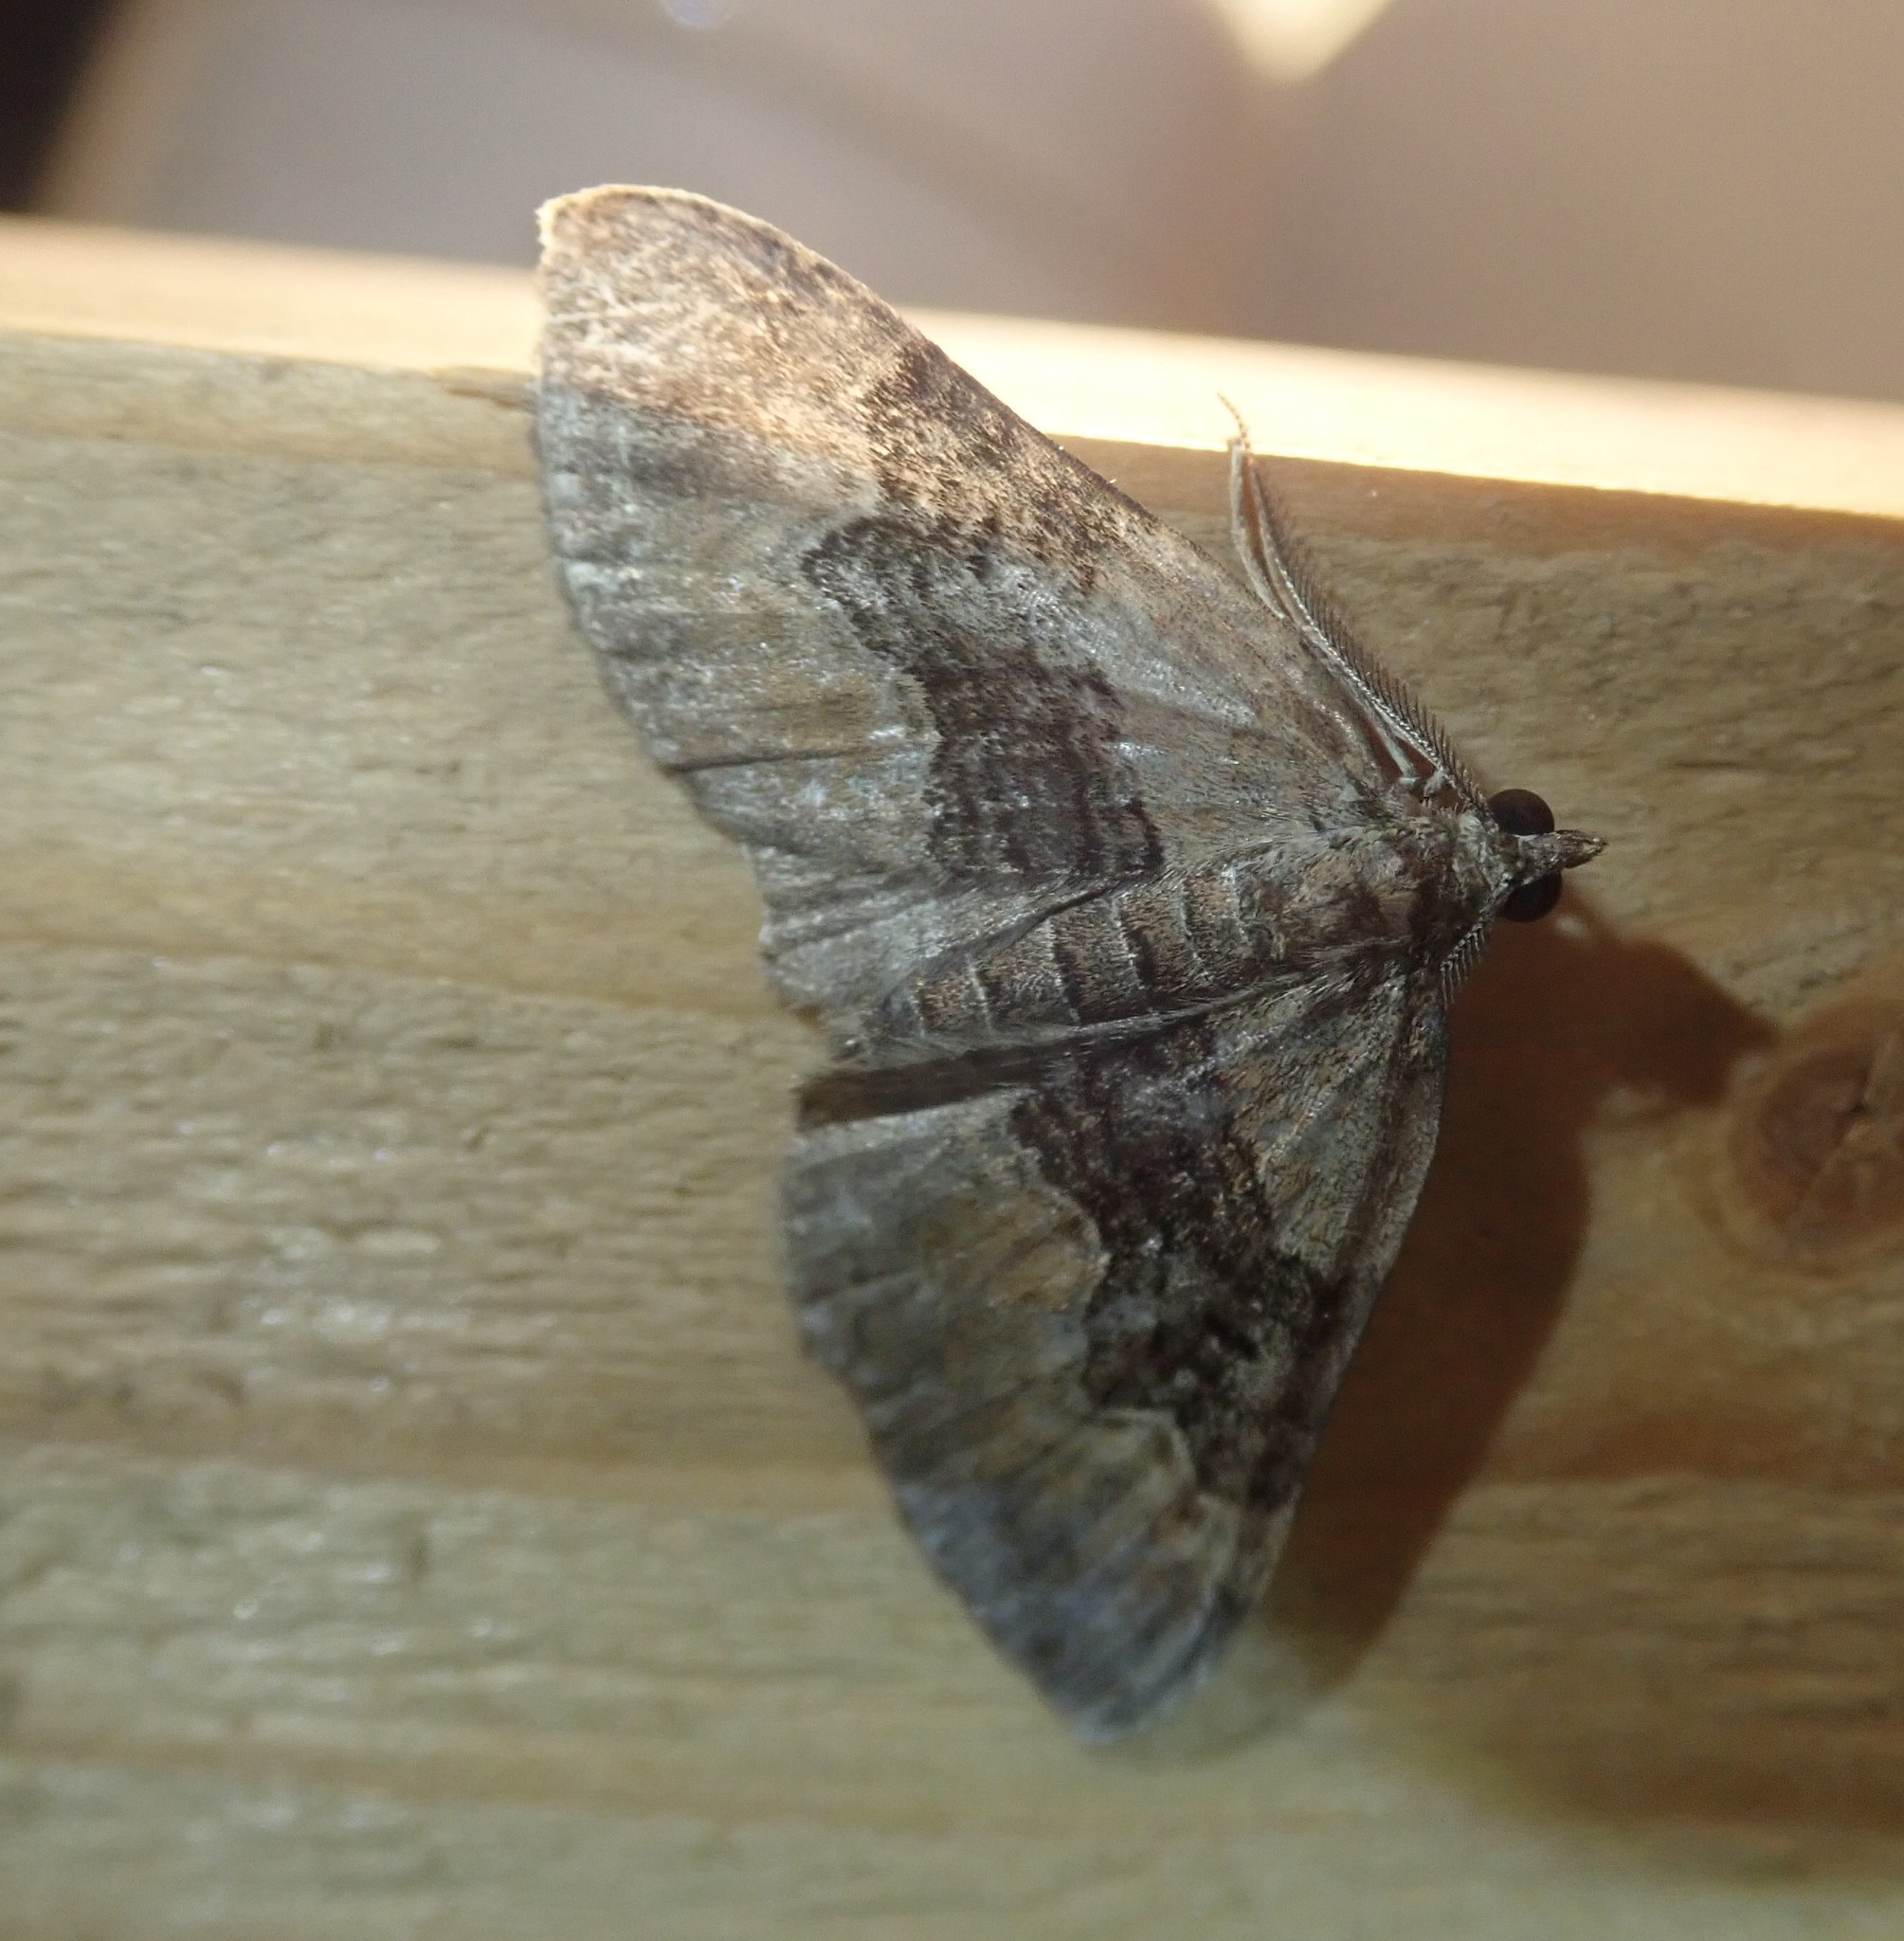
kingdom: Animalia
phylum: Arthropoda
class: Insecta
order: Lepidoptera
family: Geometridae
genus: Xanthorhoe
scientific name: Xanthorhoe quadrifasiata
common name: Large twin-spot carpet
